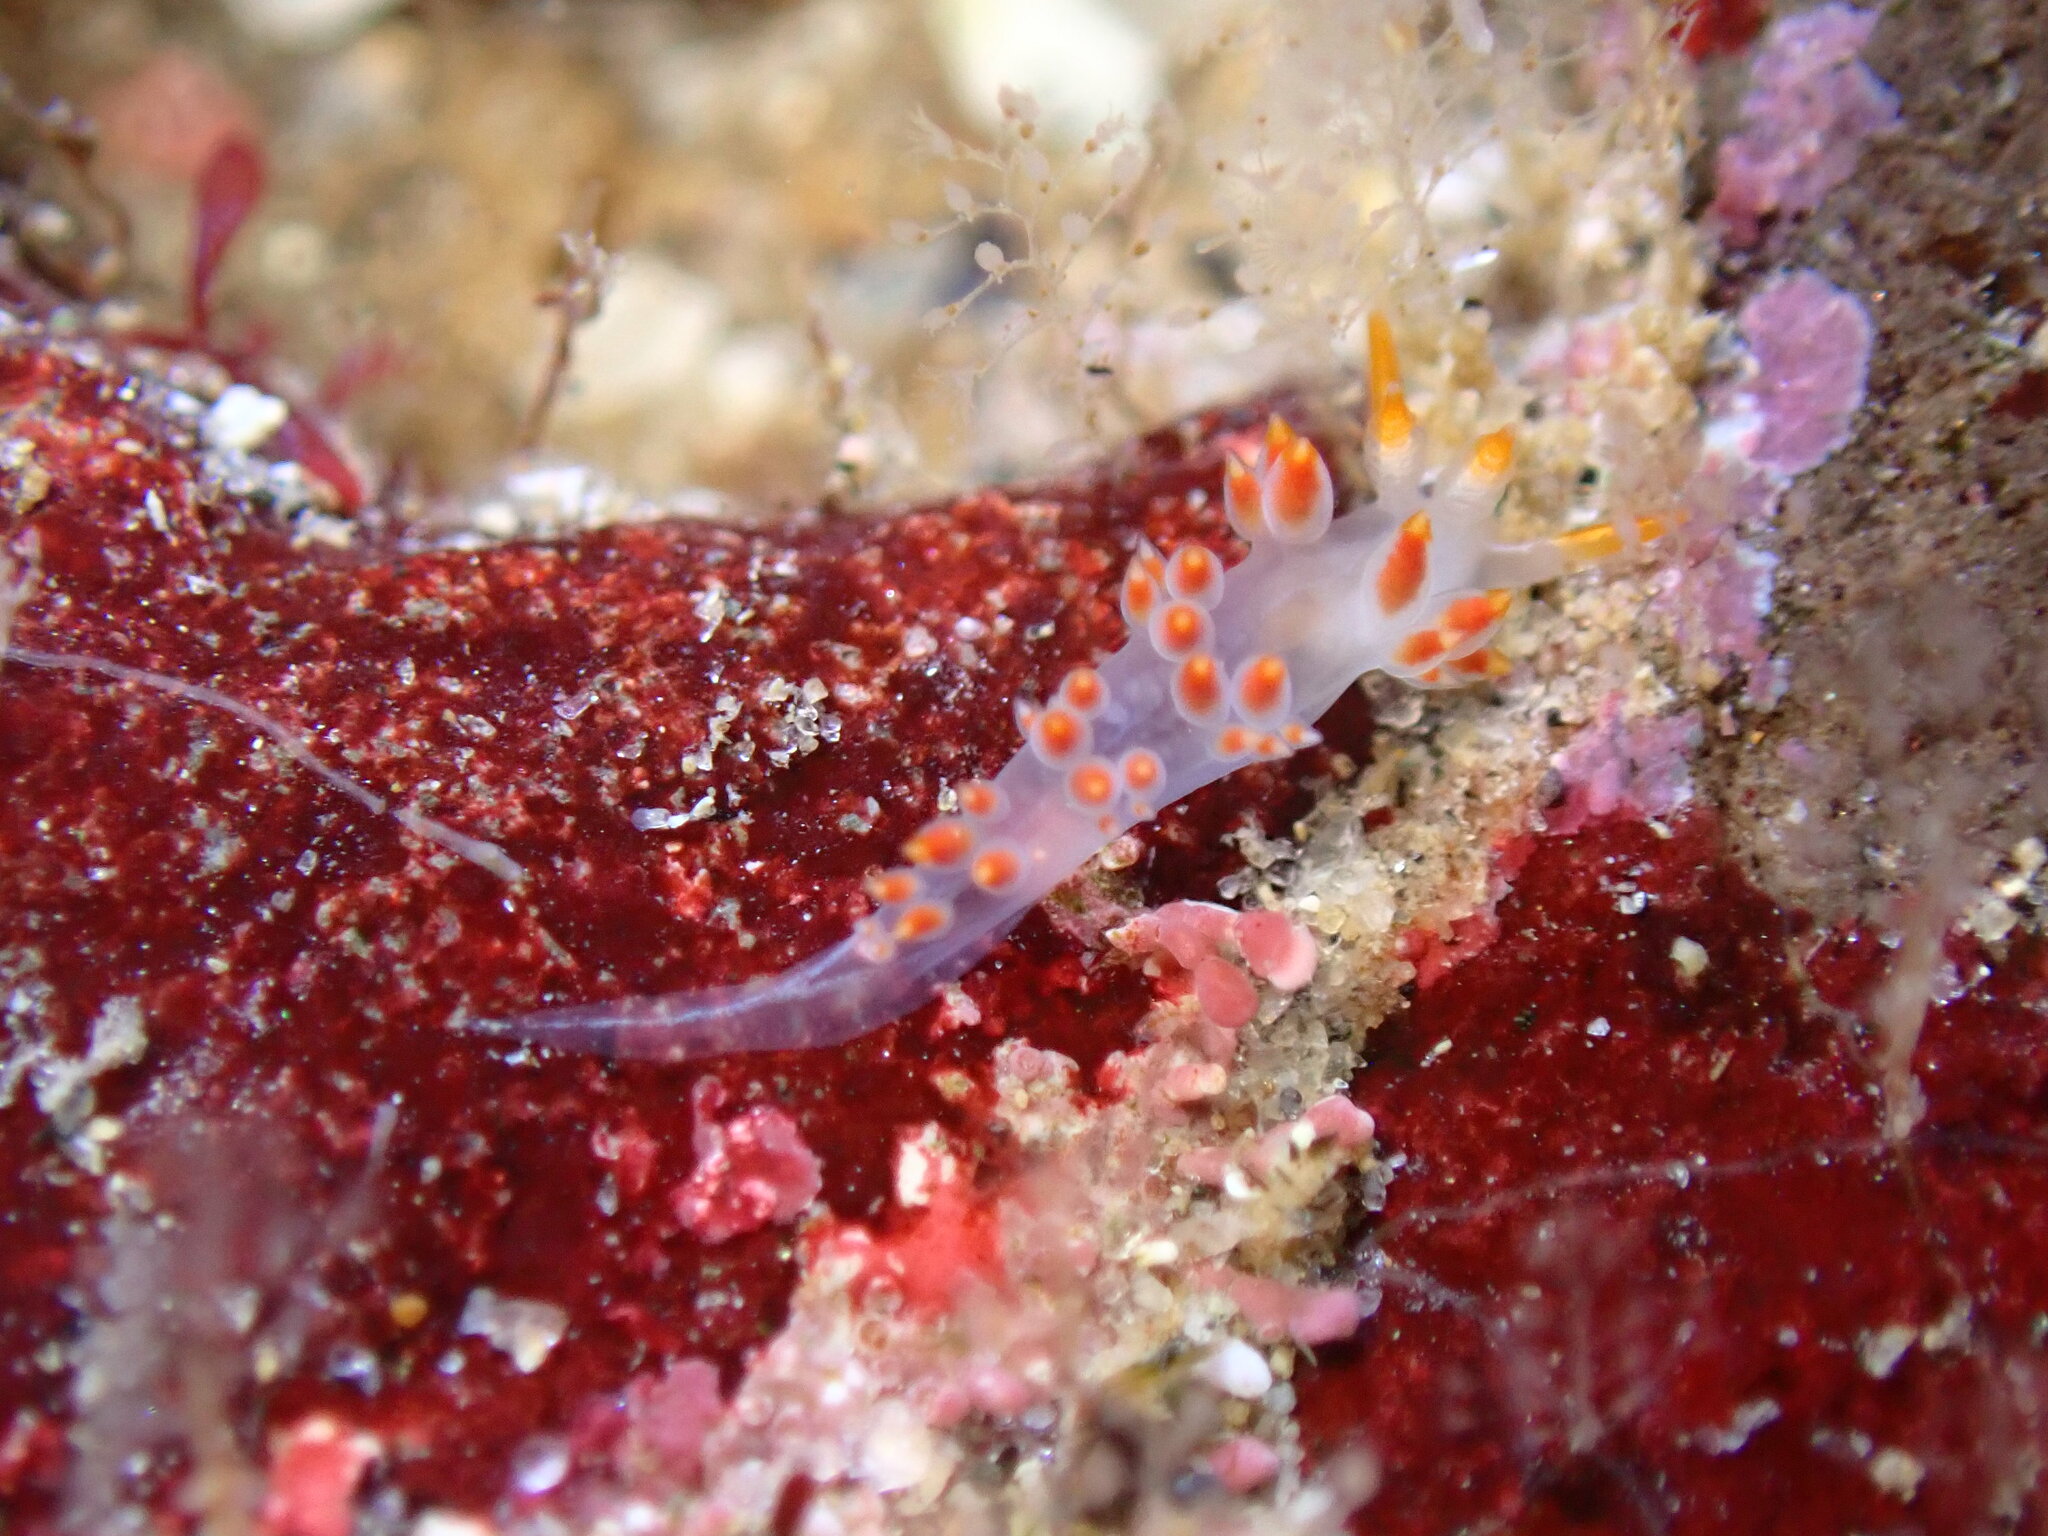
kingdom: Animalia
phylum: Mollusca
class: Gastropoda
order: Nudibranchia
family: Coryphellidae
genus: Coryphella
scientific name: Coryphella trilineata
